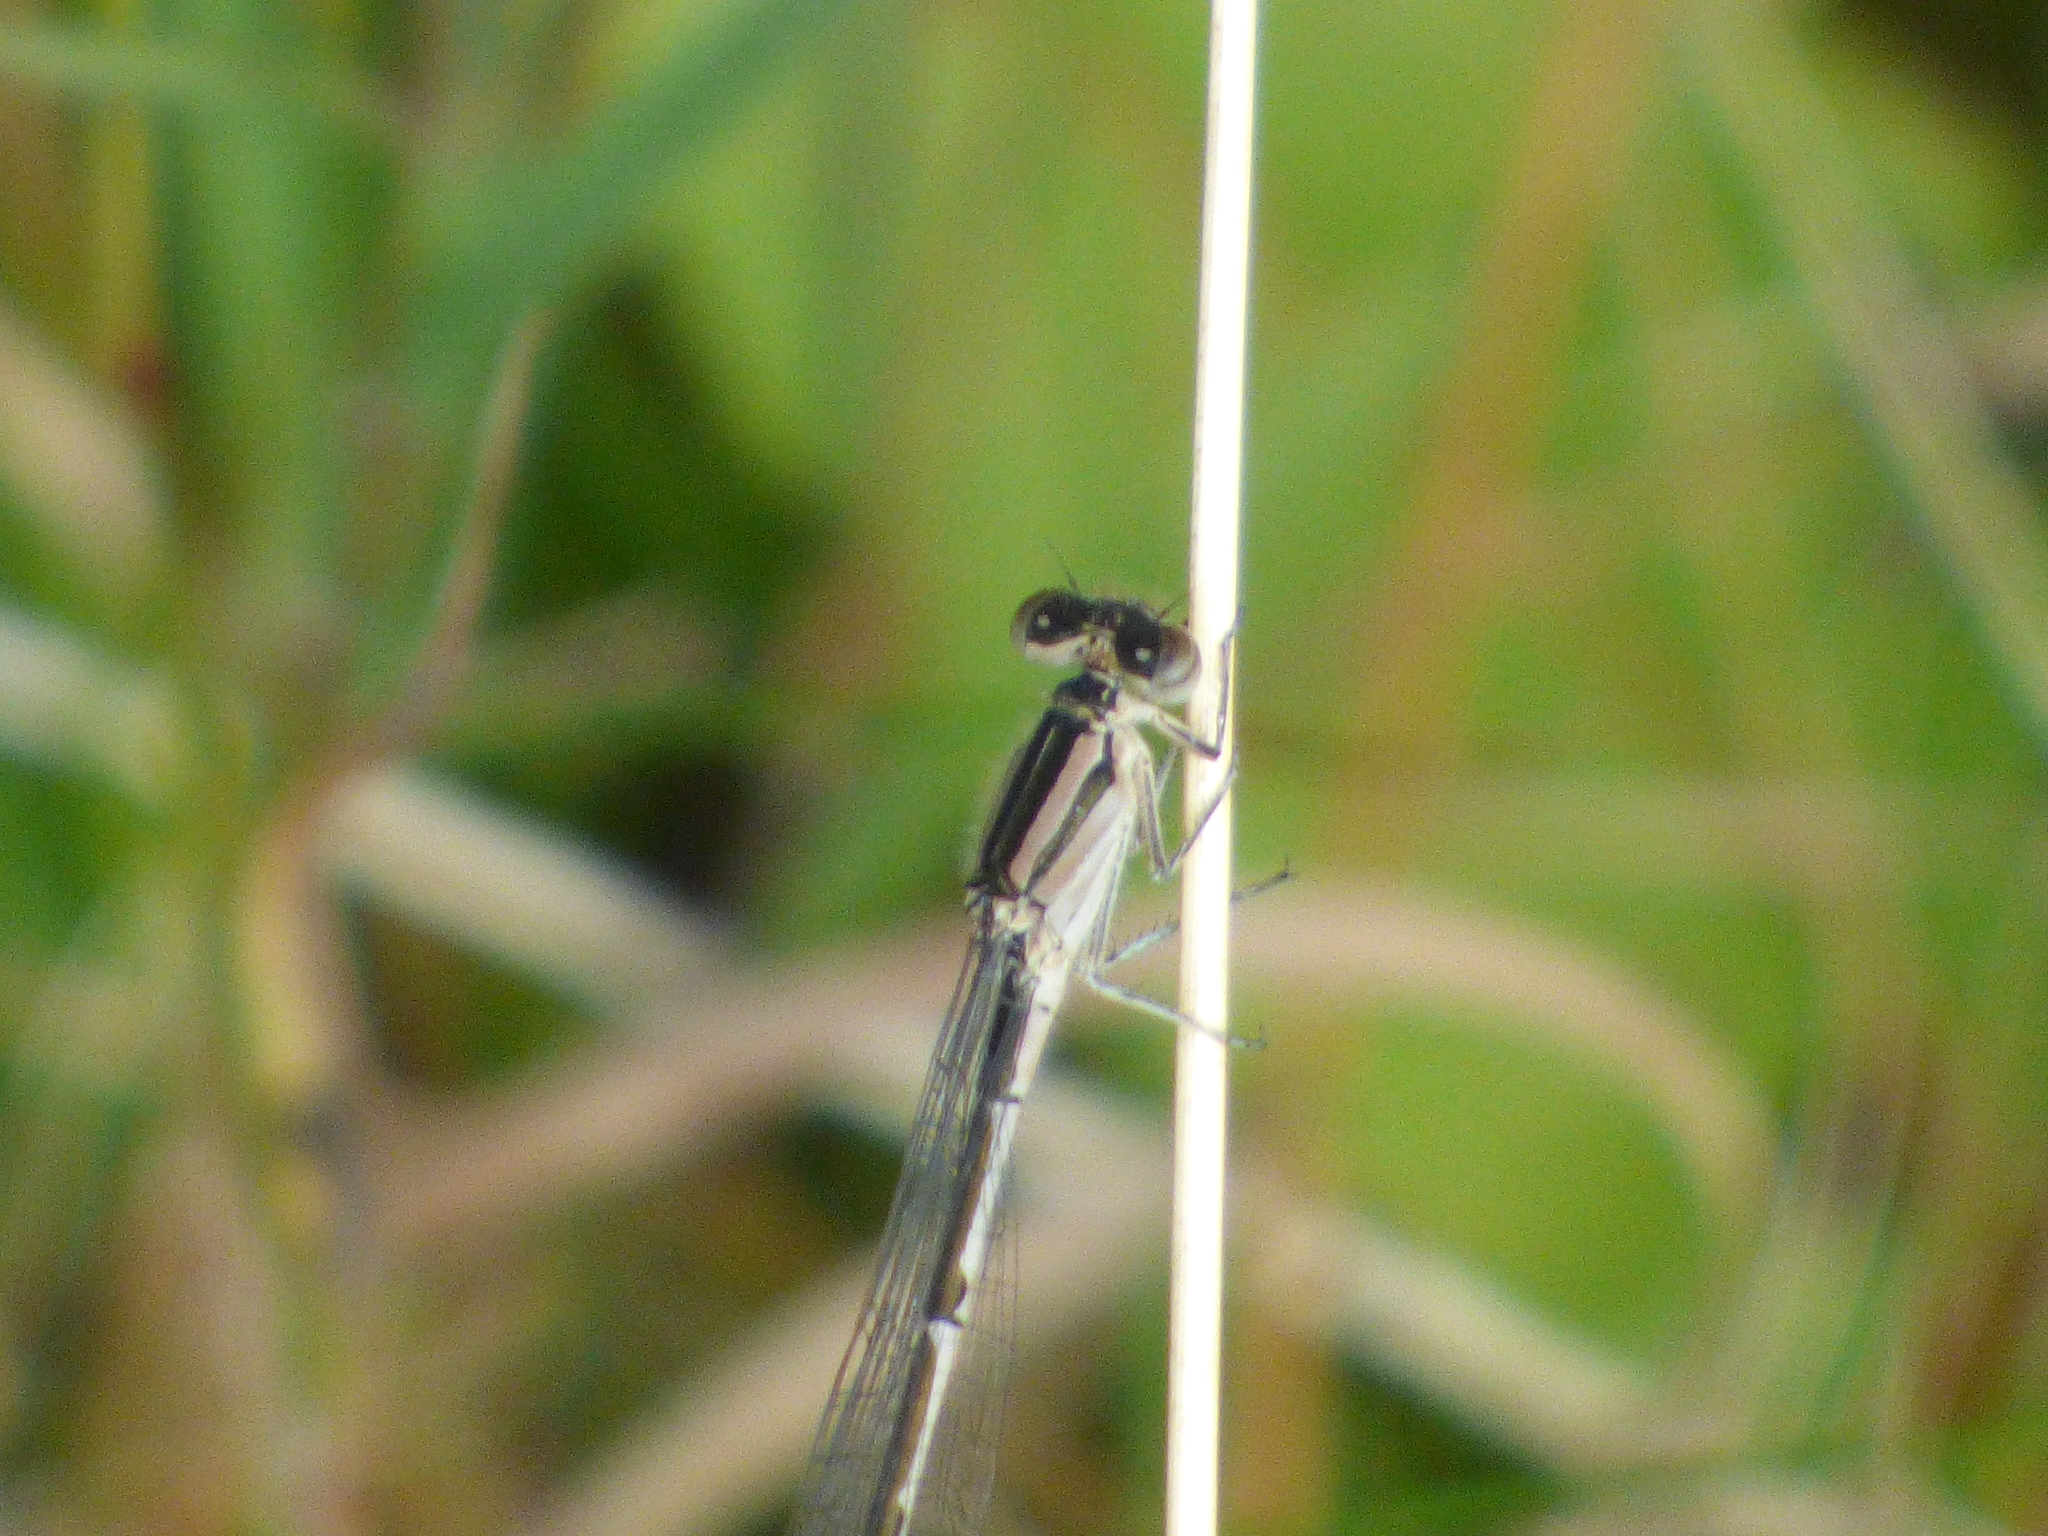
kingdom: Animalia
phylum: Arthropoda
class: Insecta
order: Odonata
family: Coenagrionidae
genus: Enallagma
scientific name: Enallagma
